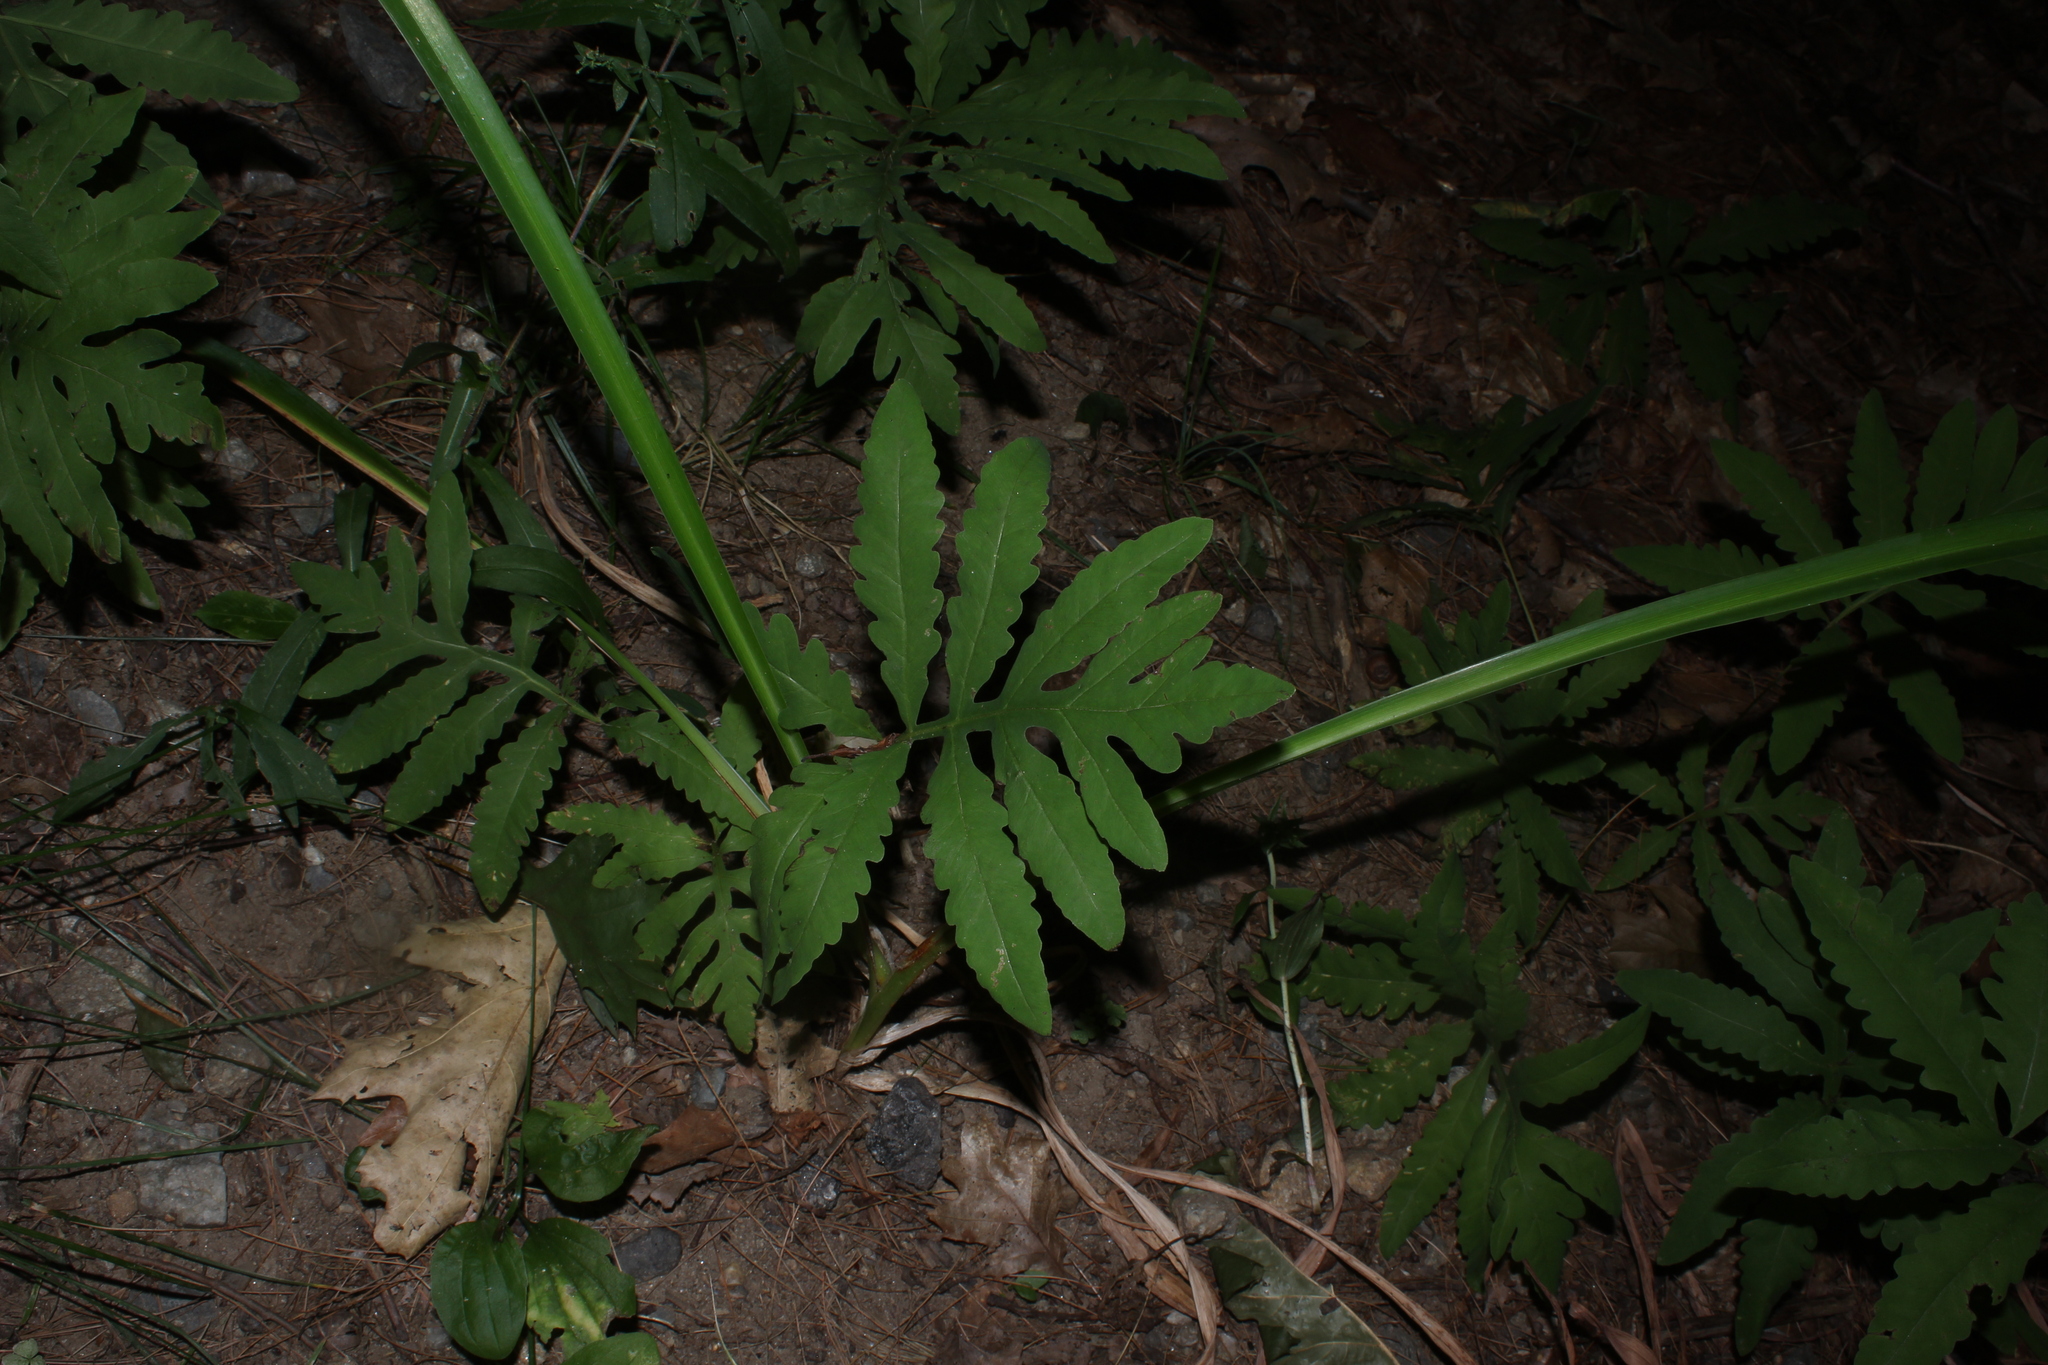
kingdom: Plantae
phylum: Tracheophyta
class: Polypodiopsida
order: Polypodiales
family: Onocleaceae
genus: Onoclea
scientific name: Onoclea sensibilis
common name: Sensitive fern
